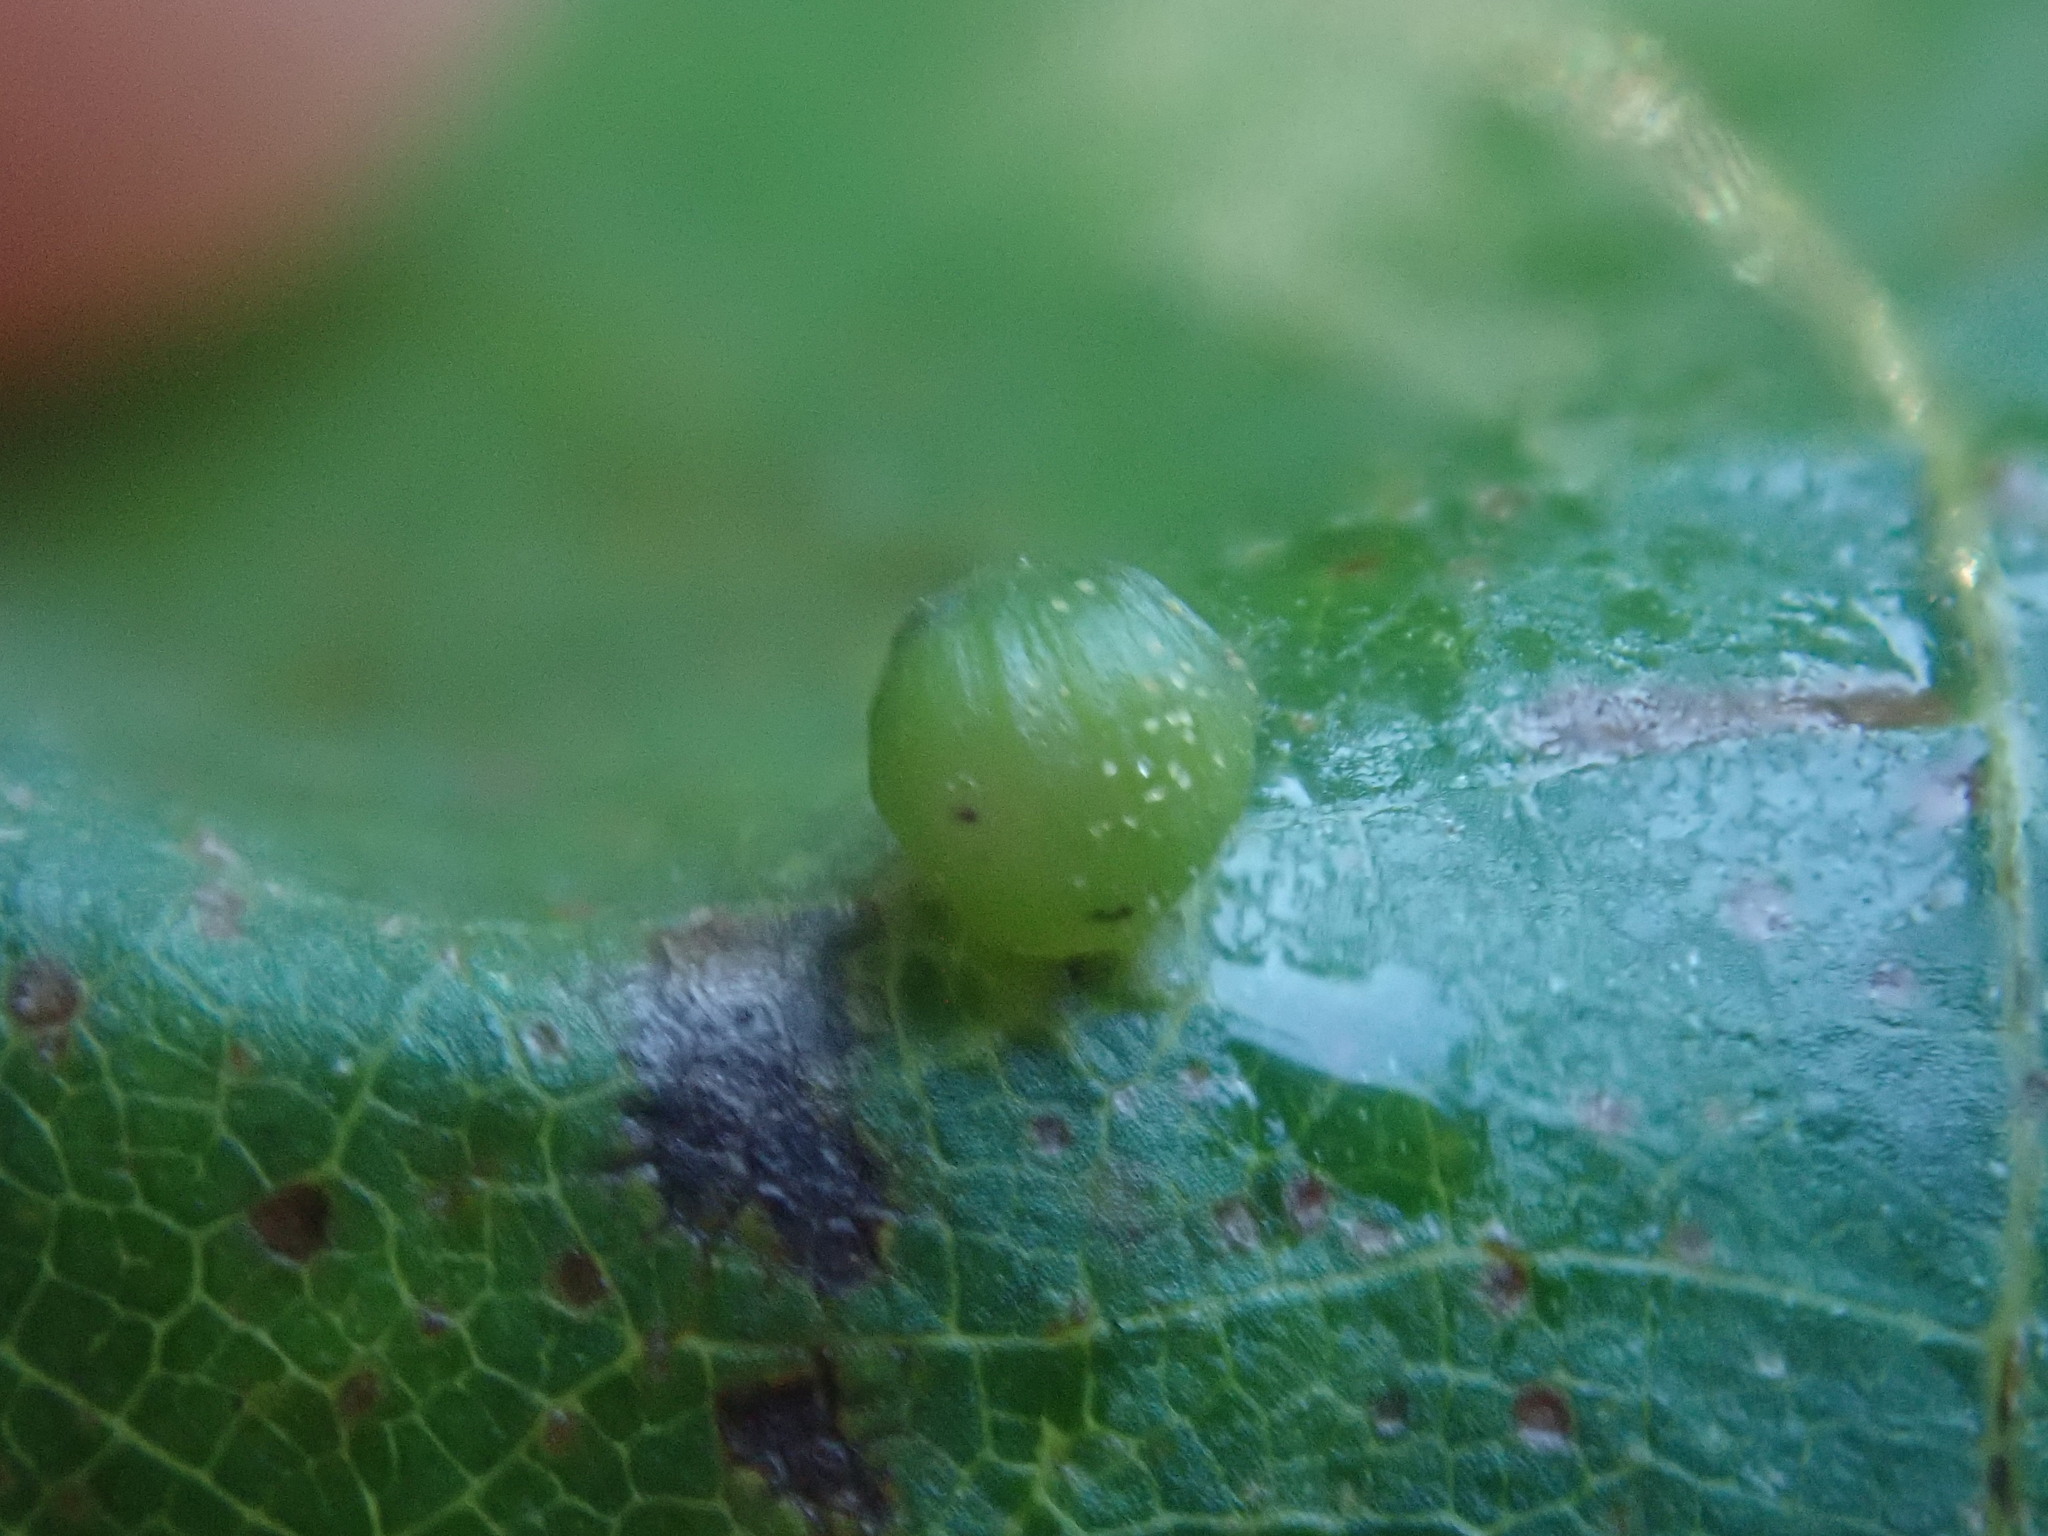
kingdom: Animalia
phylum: Arthropoda
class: Insecta
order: Diptera
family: Cecidomyiidae
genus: Caryomyia
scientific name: Caryomyia viscidolium
